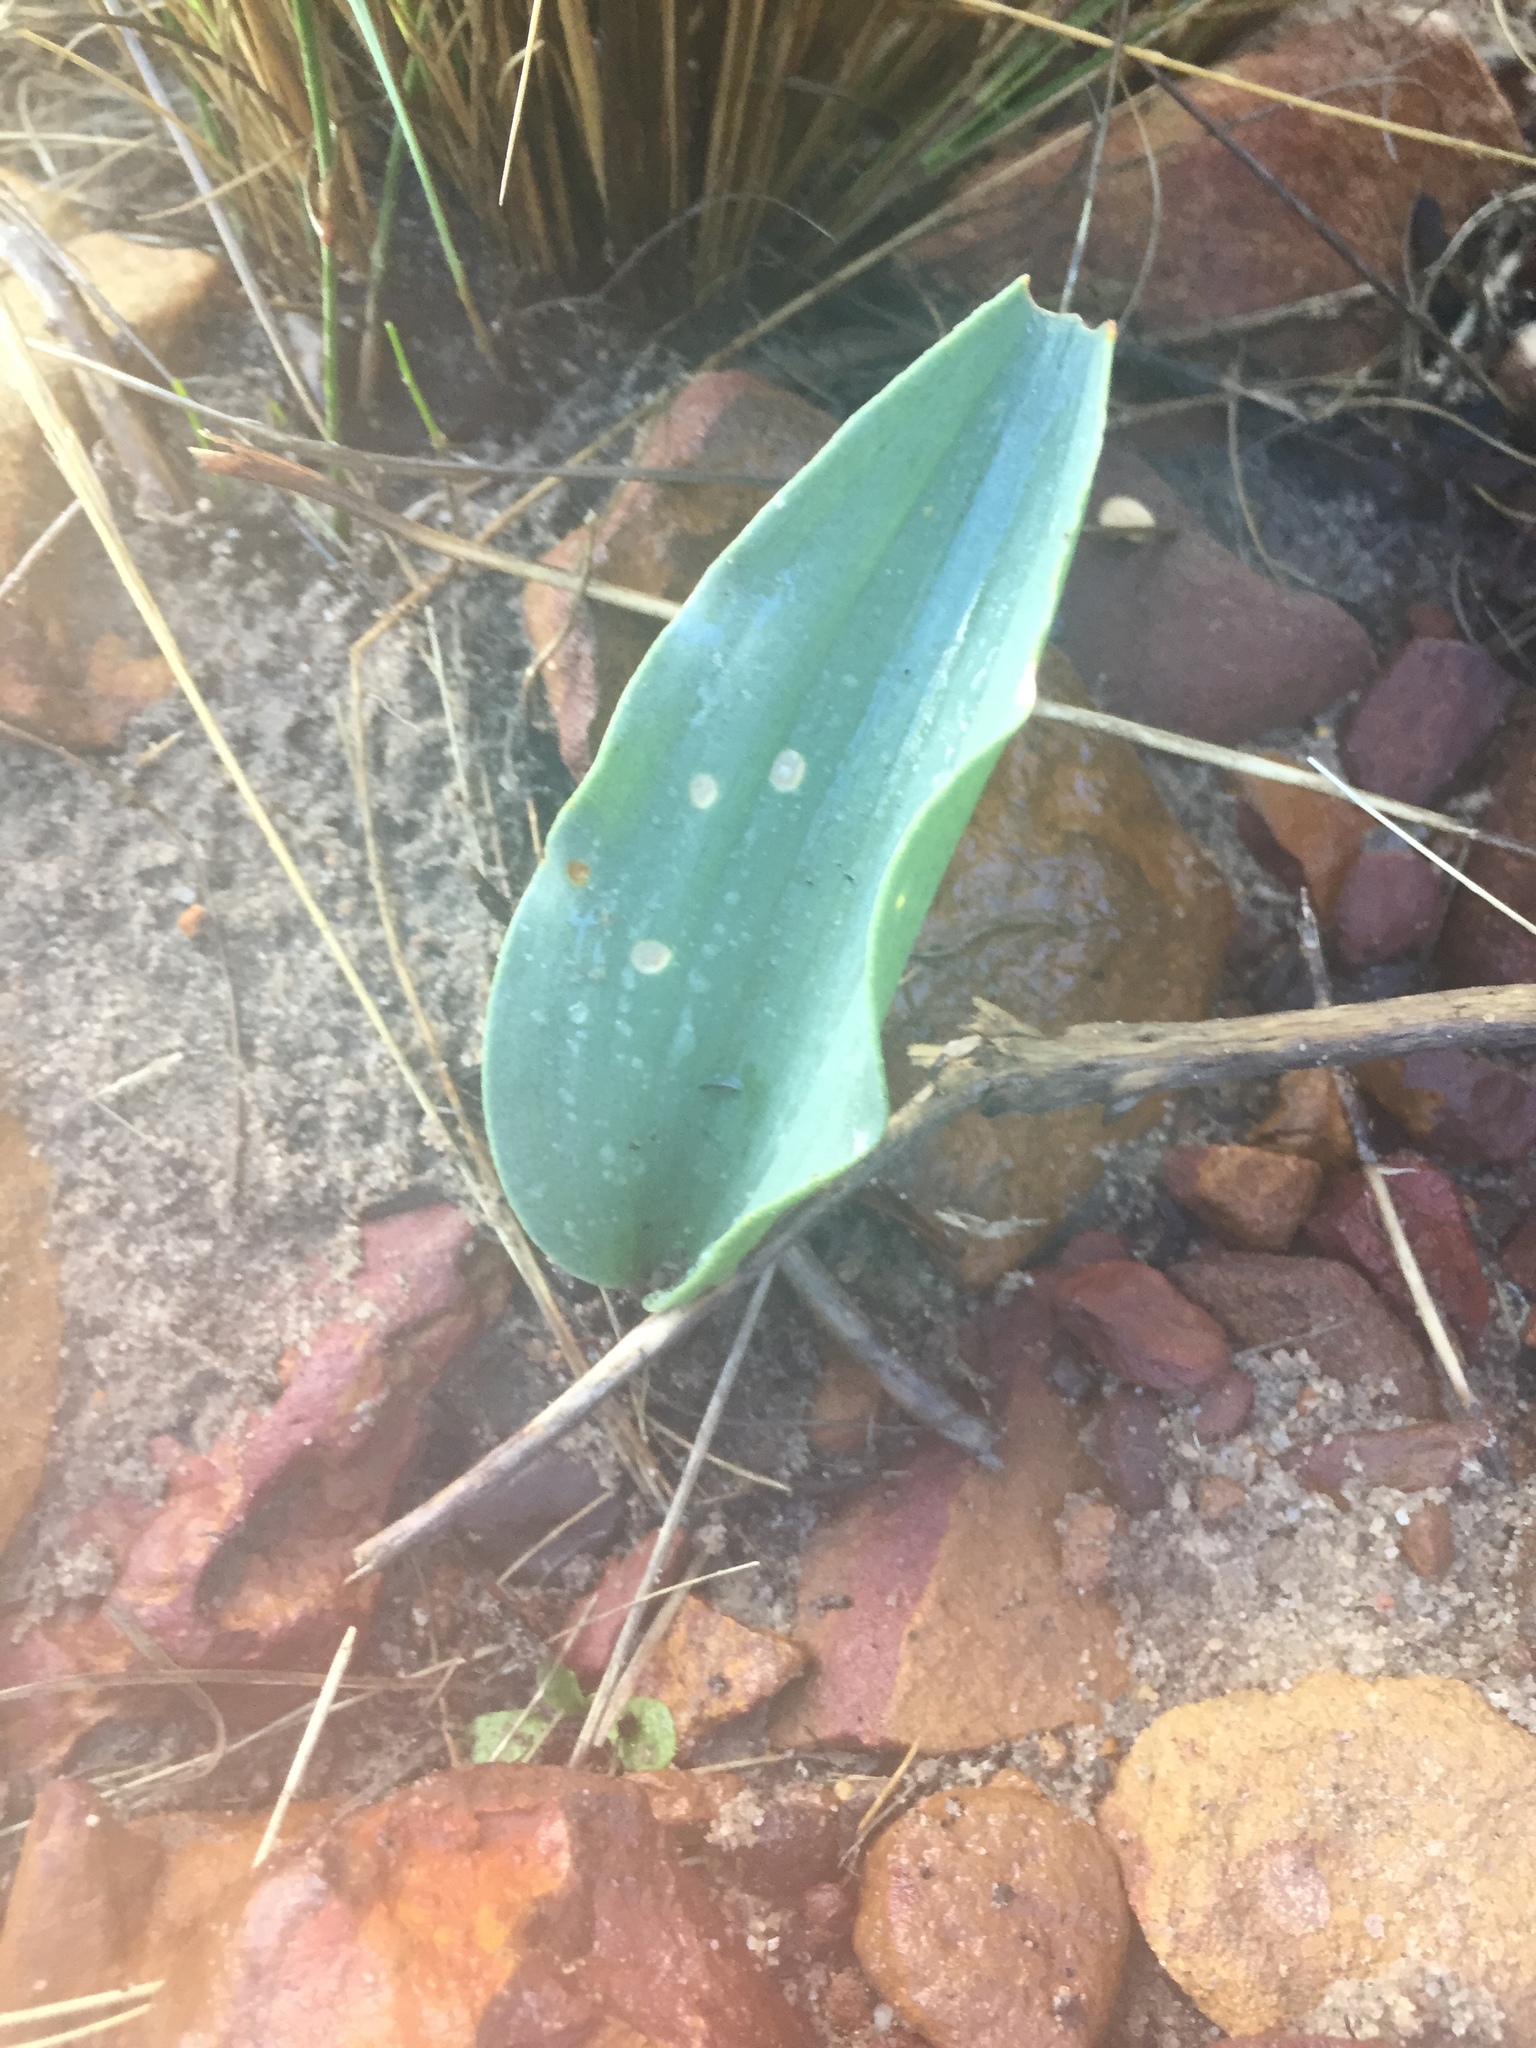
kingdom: Plantae
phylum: Tracheophyta
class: Liliopsida
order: Asparagales
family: Asparagaceae
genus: Eriospermum
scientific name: Eriospermum lanceifolium
